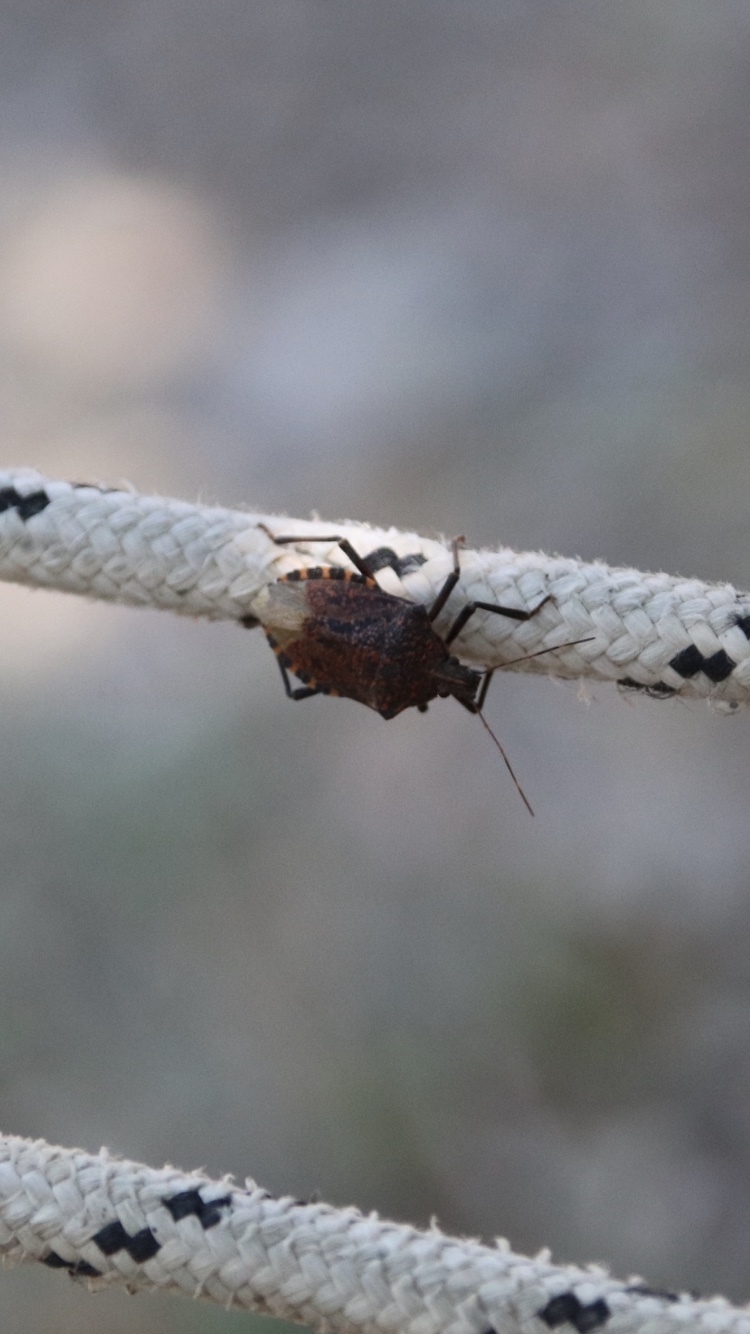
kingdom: Animalia
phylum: Arthropoda
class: Insecta
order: Hemiptera
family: Pentatomidae
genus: Apodiphus
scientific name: Apodiphus amygdali
